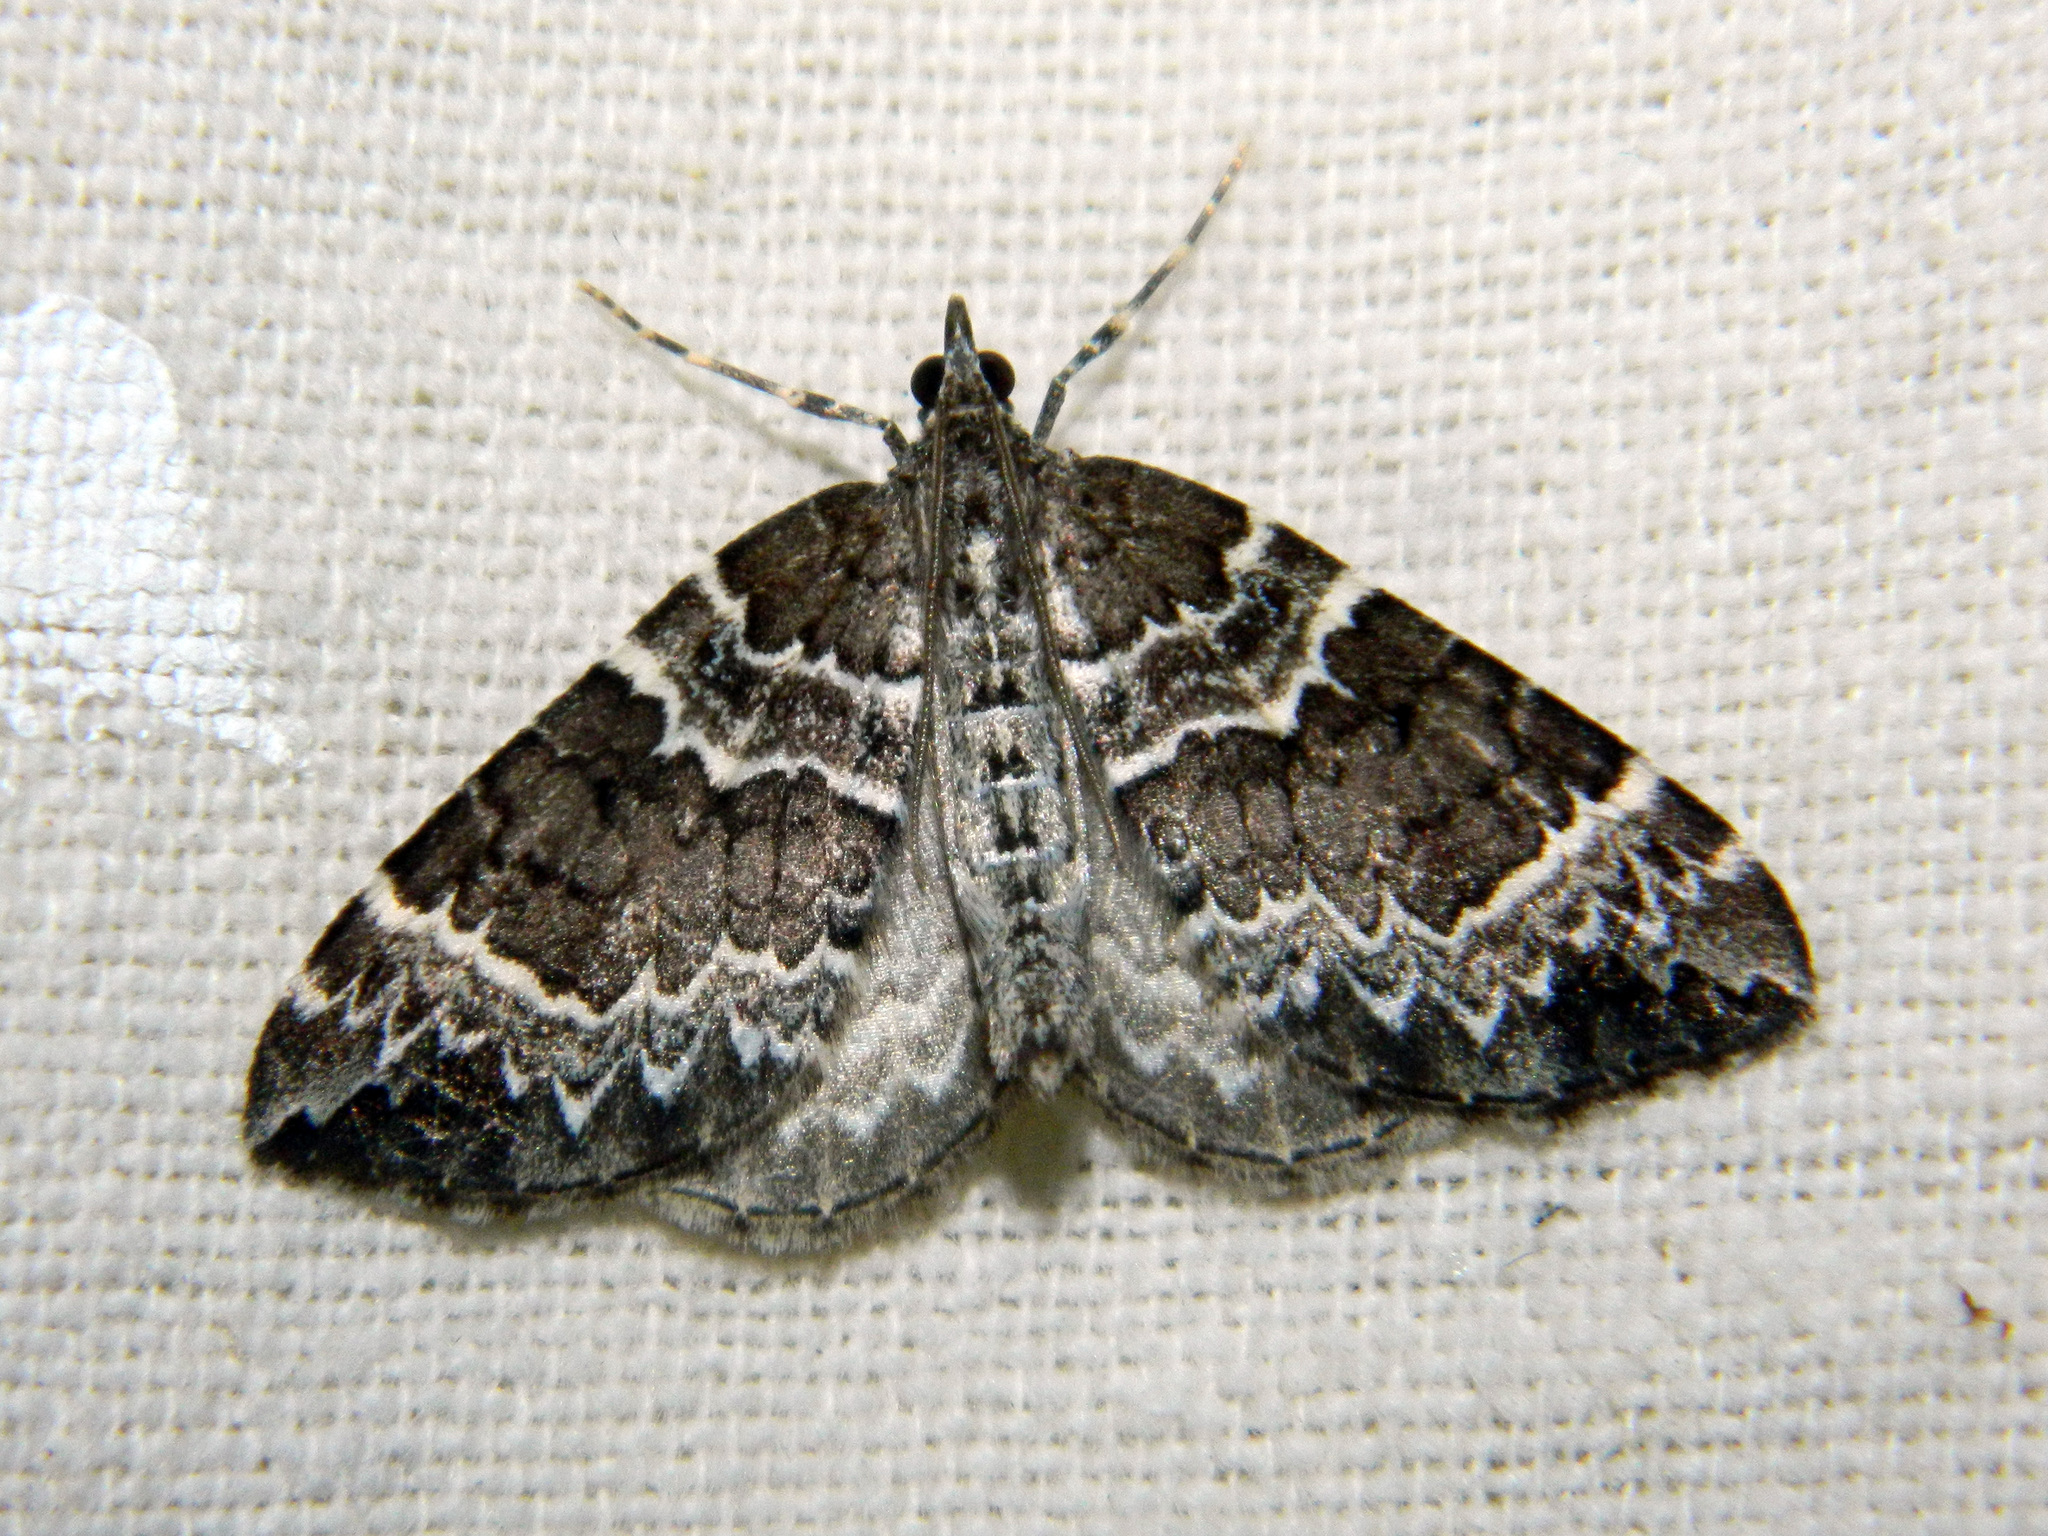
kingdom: Animalia
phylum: Arthropoda
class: Insecta
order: Lepidoptera
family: Geometridae
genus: Eulithis
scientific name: Eulithis explanata
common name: White eulithis
